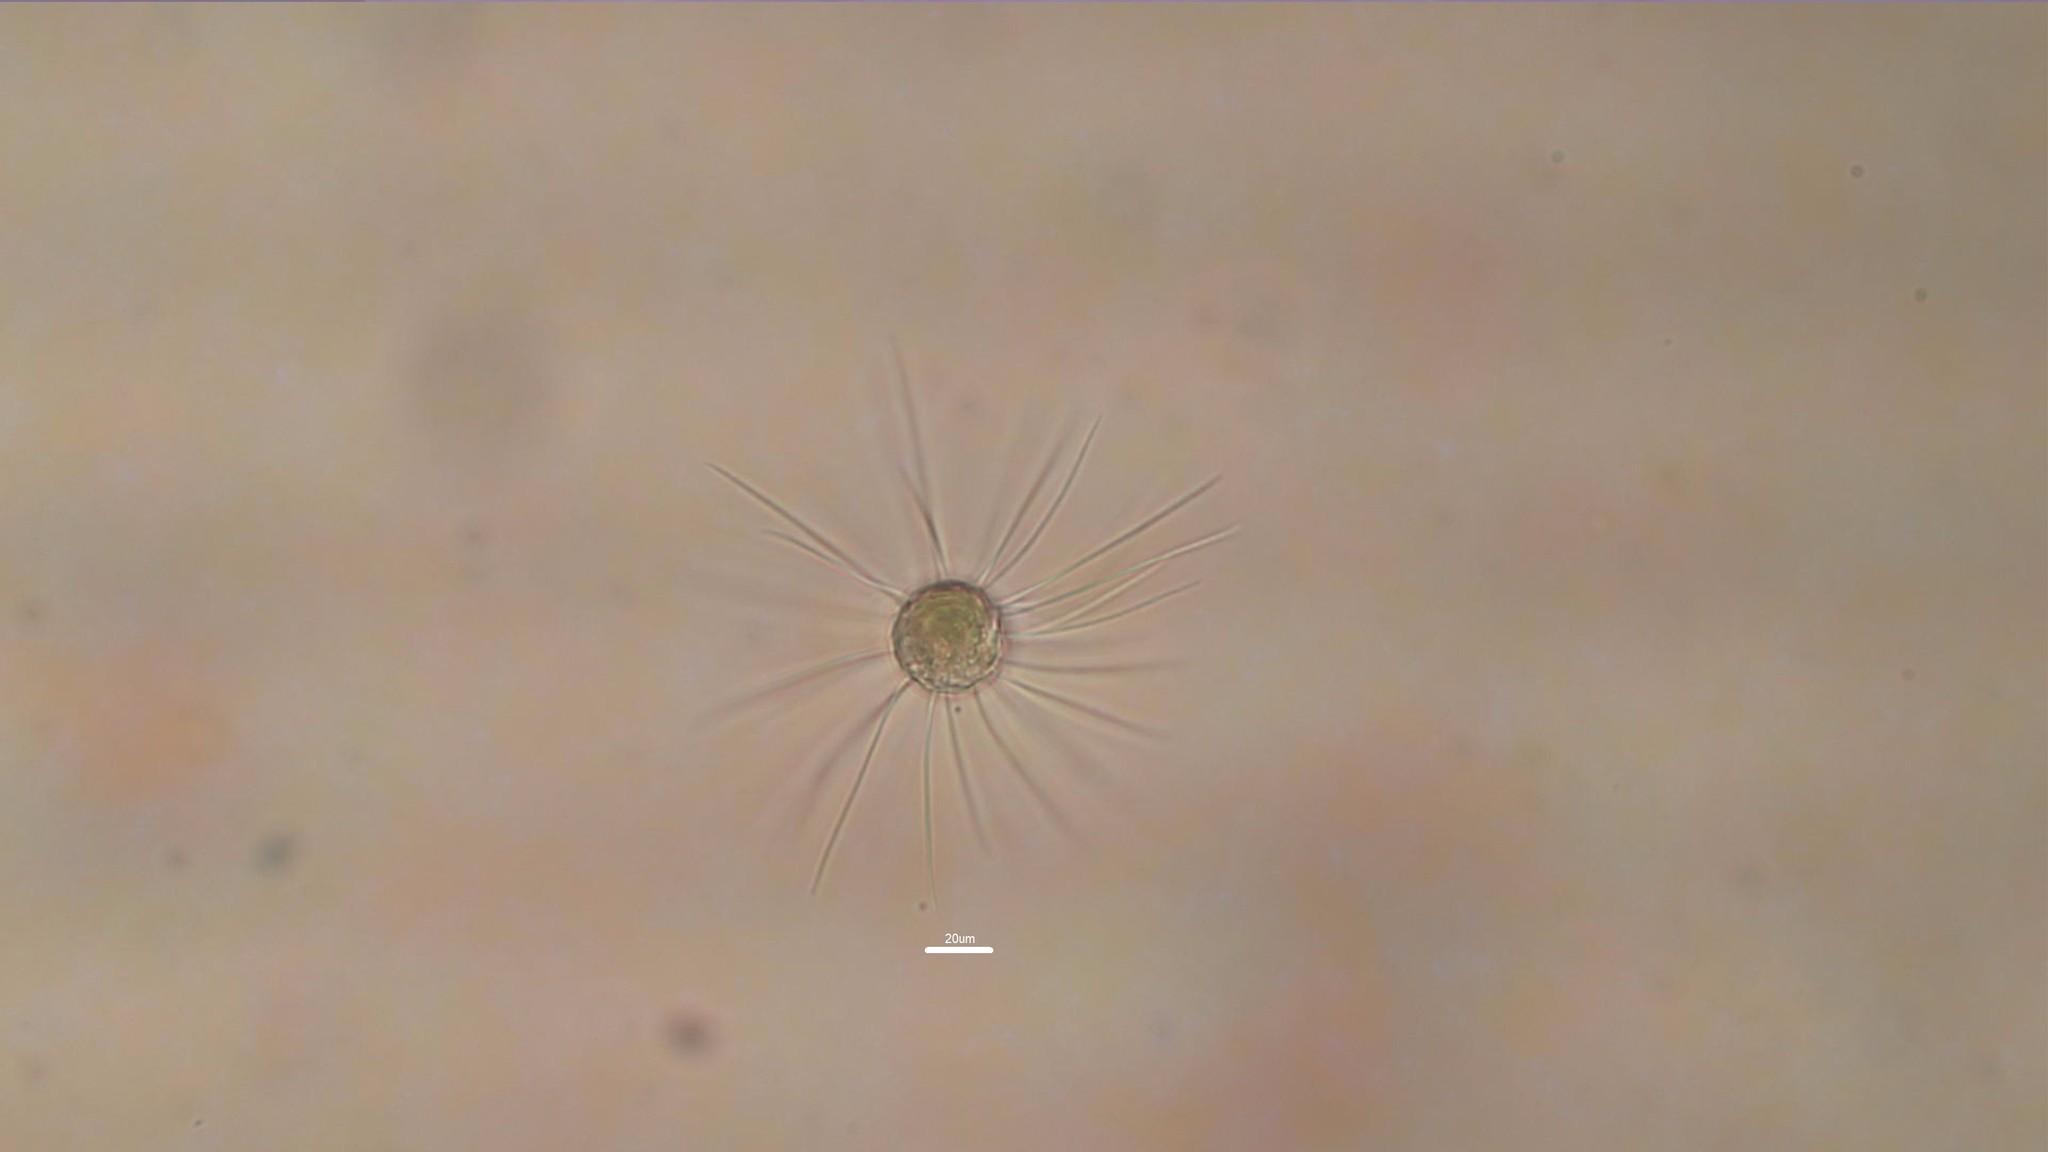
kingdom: Chromista
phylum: Ochrophyta
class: Chrysophyceae
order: Synurales
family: Mallomonadaceae
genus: Mallomonas
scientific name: Mallomonas
